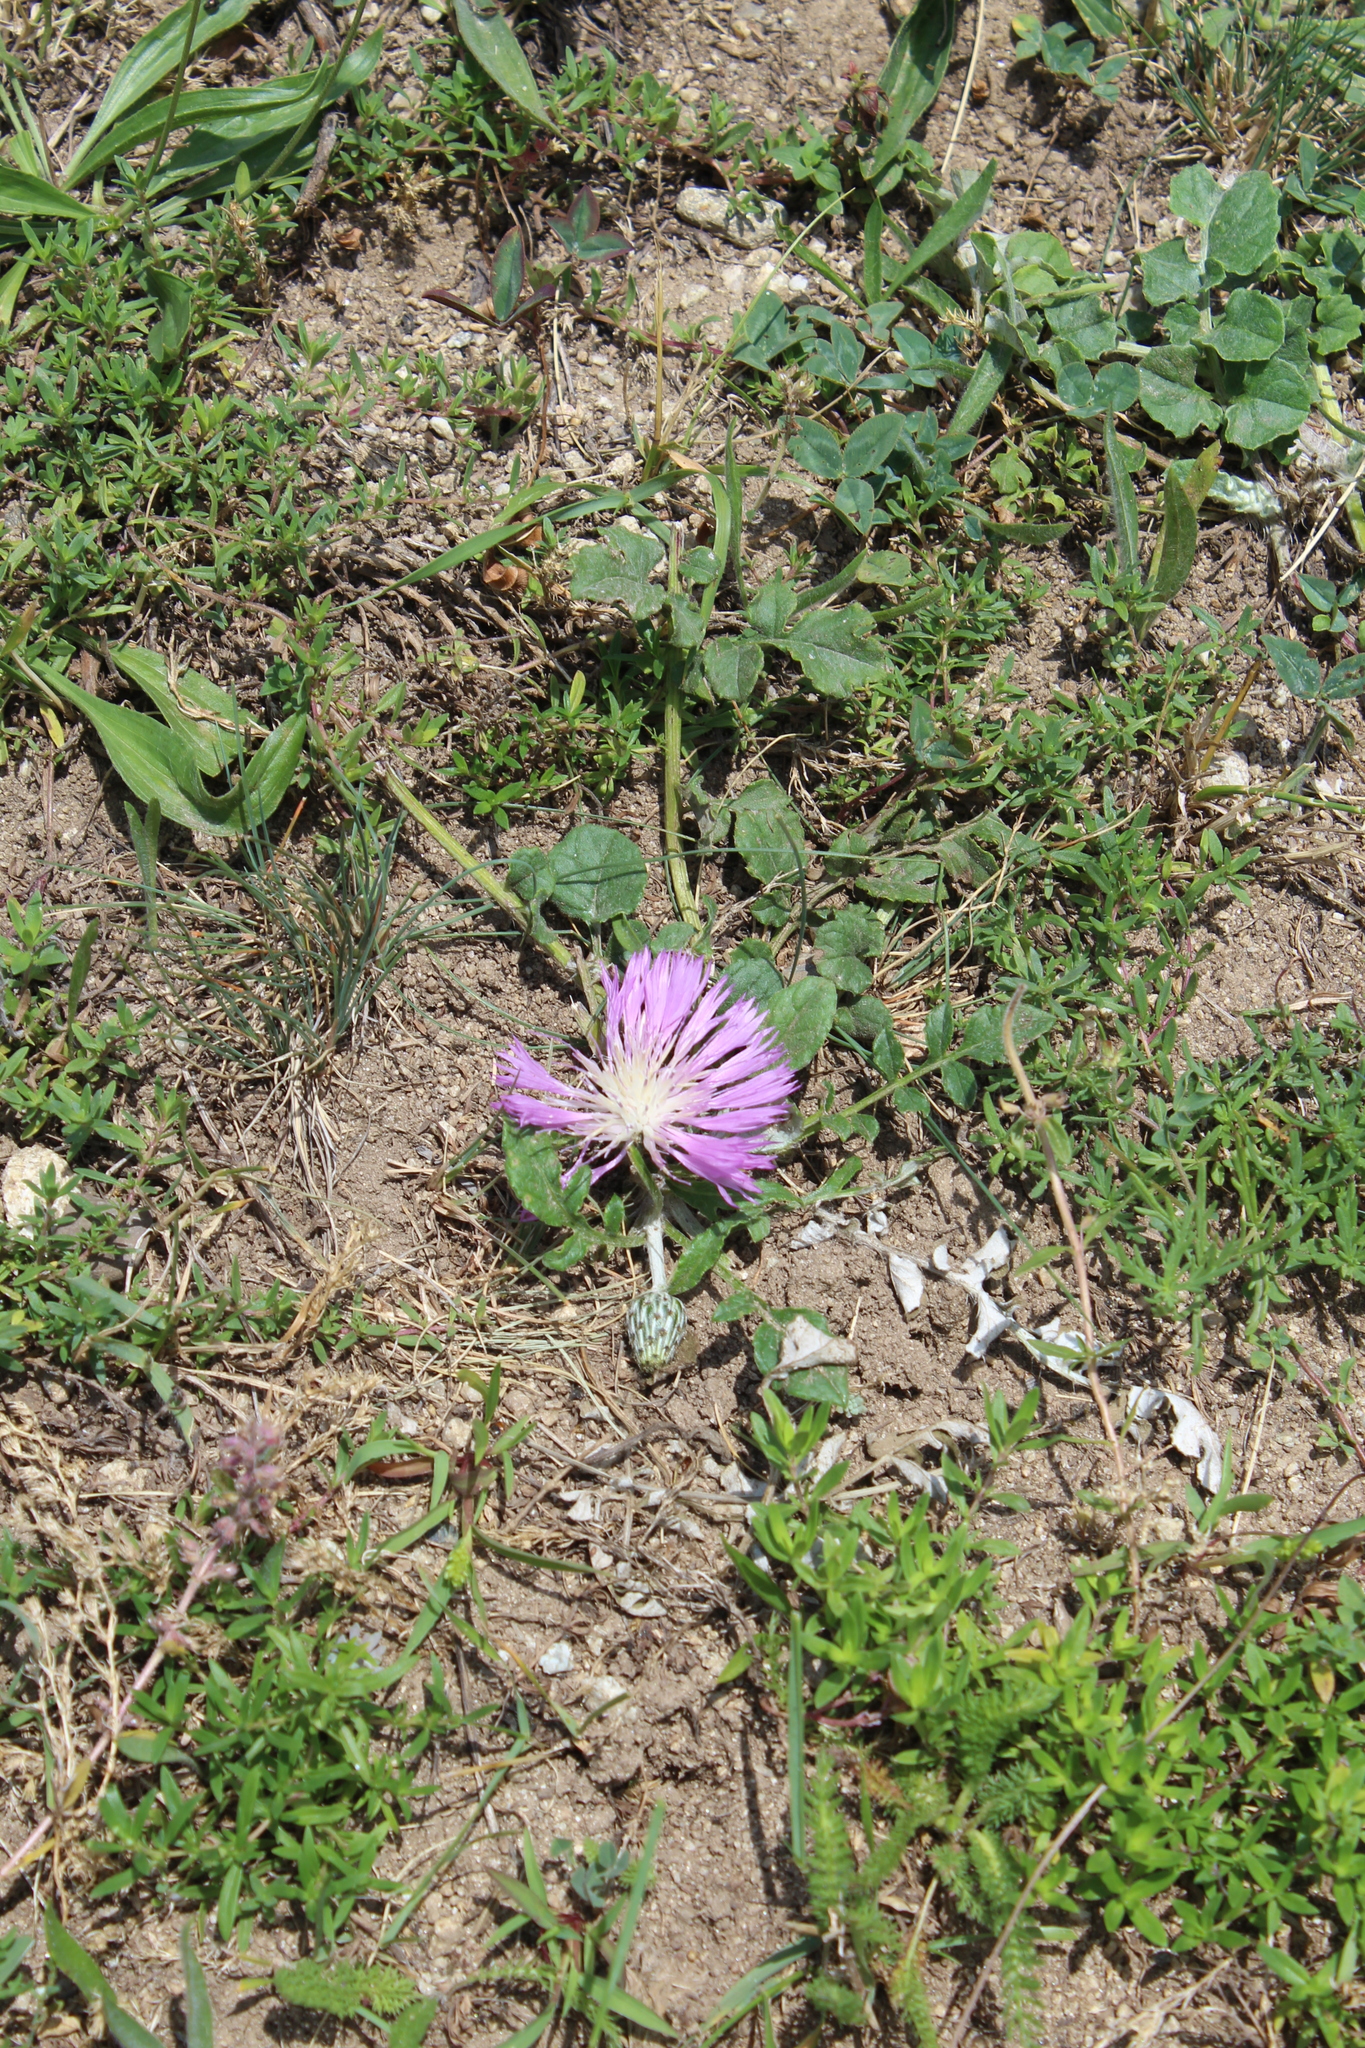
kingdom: Plantae
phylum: Tracheophyta
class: Magnoliopsida
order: Asterales
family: Asteraceae
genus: Psephellus
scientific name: Psephellus salviifolius
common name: Sage-leaved psephellus
